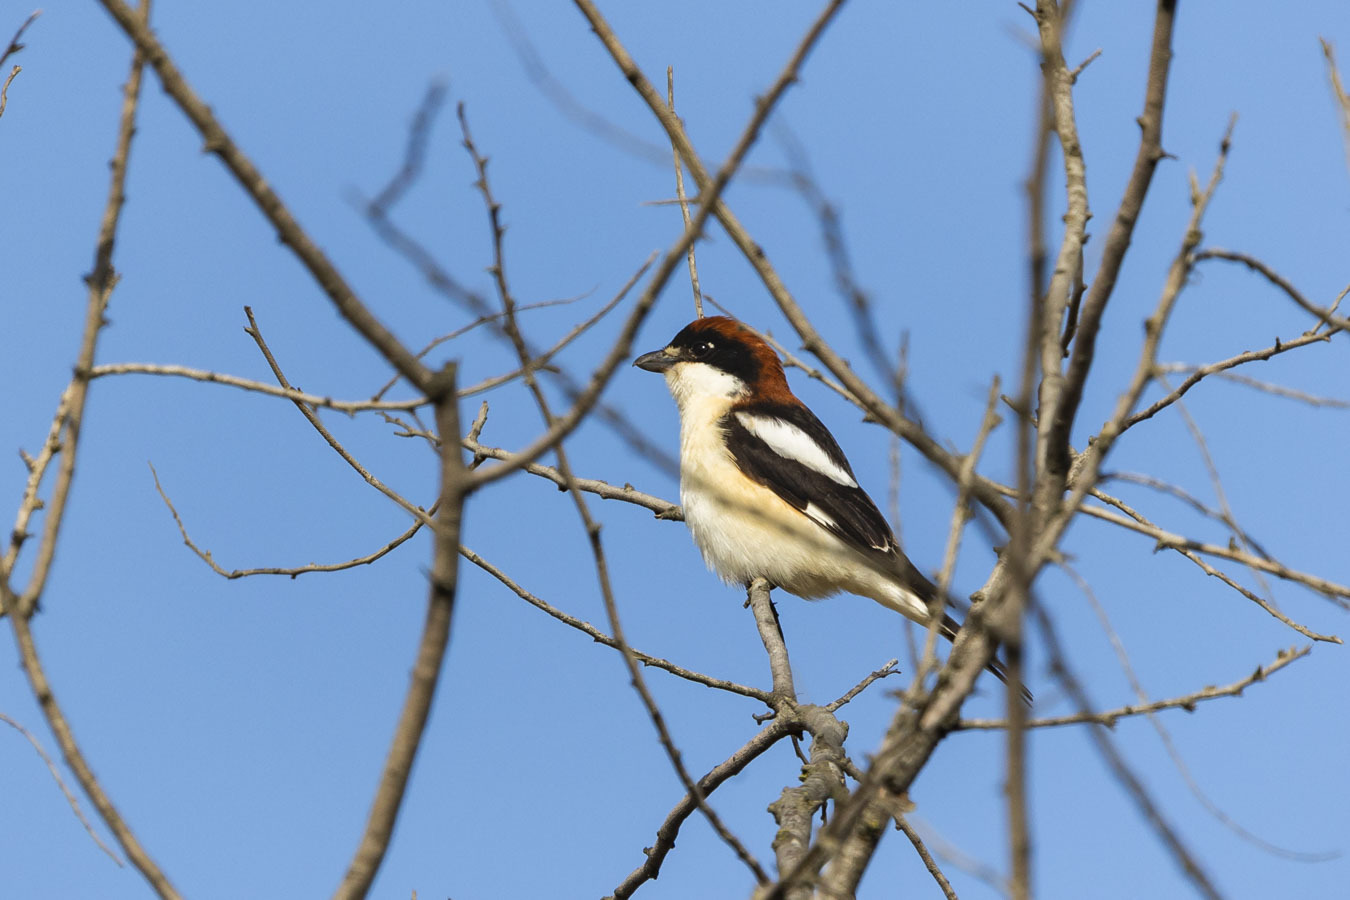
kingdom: Animalia
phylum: Chordata
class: Aves
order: Passeriformes
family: Laniidae
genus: Lanius
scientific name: Lanius senator
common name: Woodchat shrike
